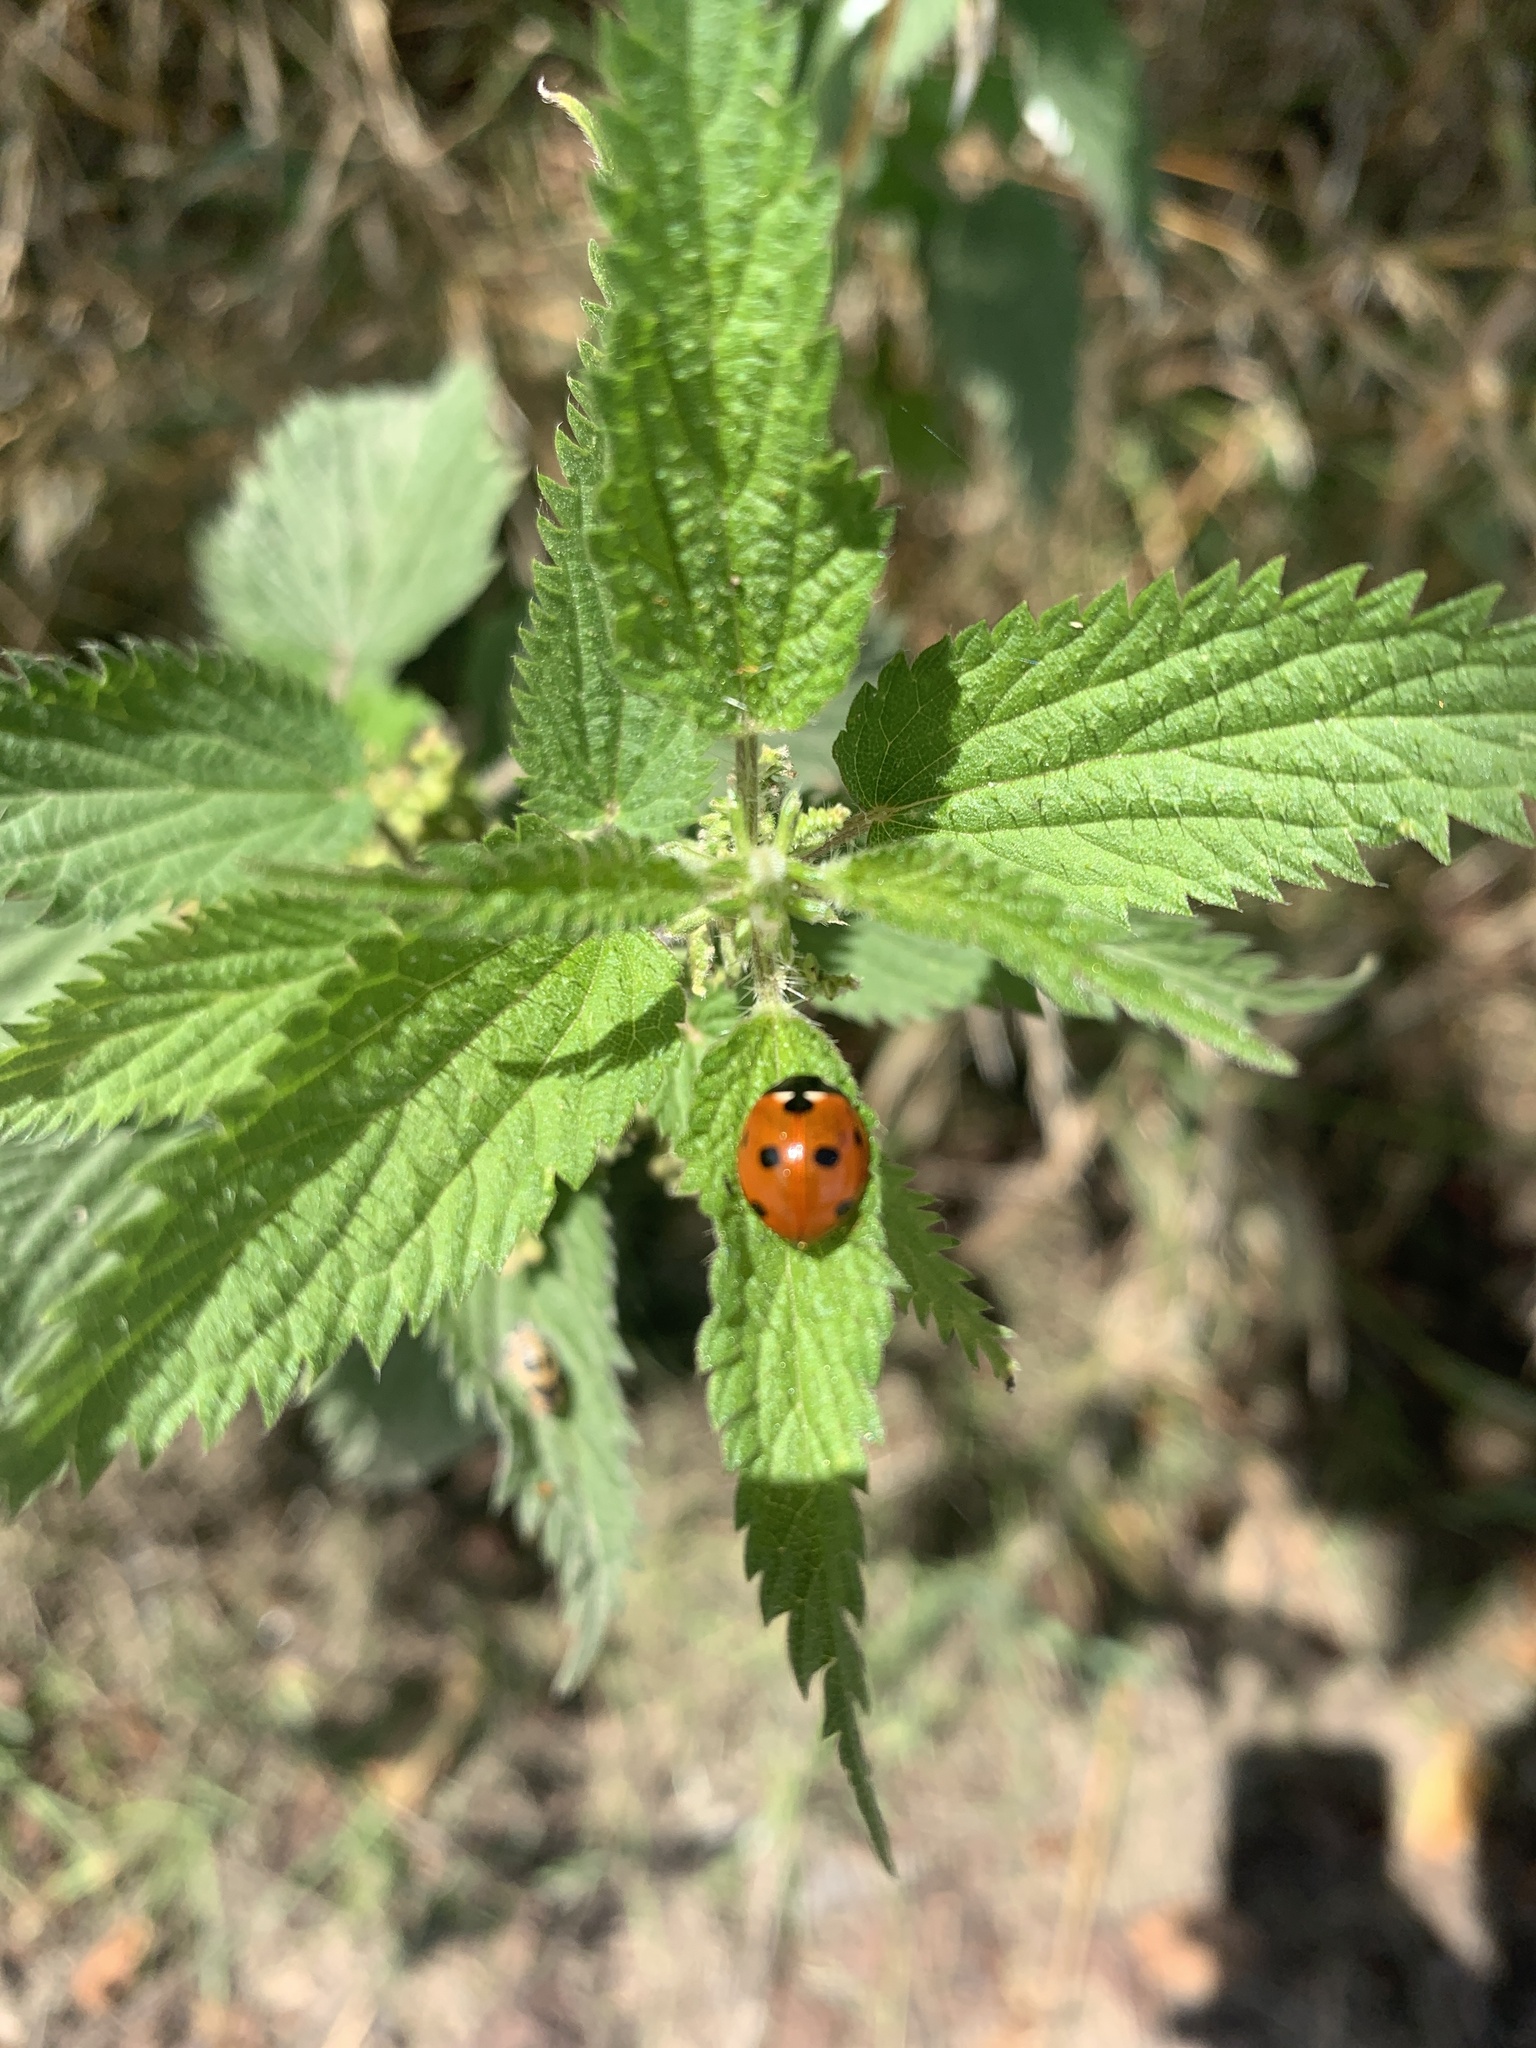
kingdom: Animalia
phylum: Arthropoda
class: Insecta
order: Coleoptera
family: Coccinellidae
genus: Coccinella
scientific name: Coccinella septempunctata
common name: Sevenspotted lady beetle
